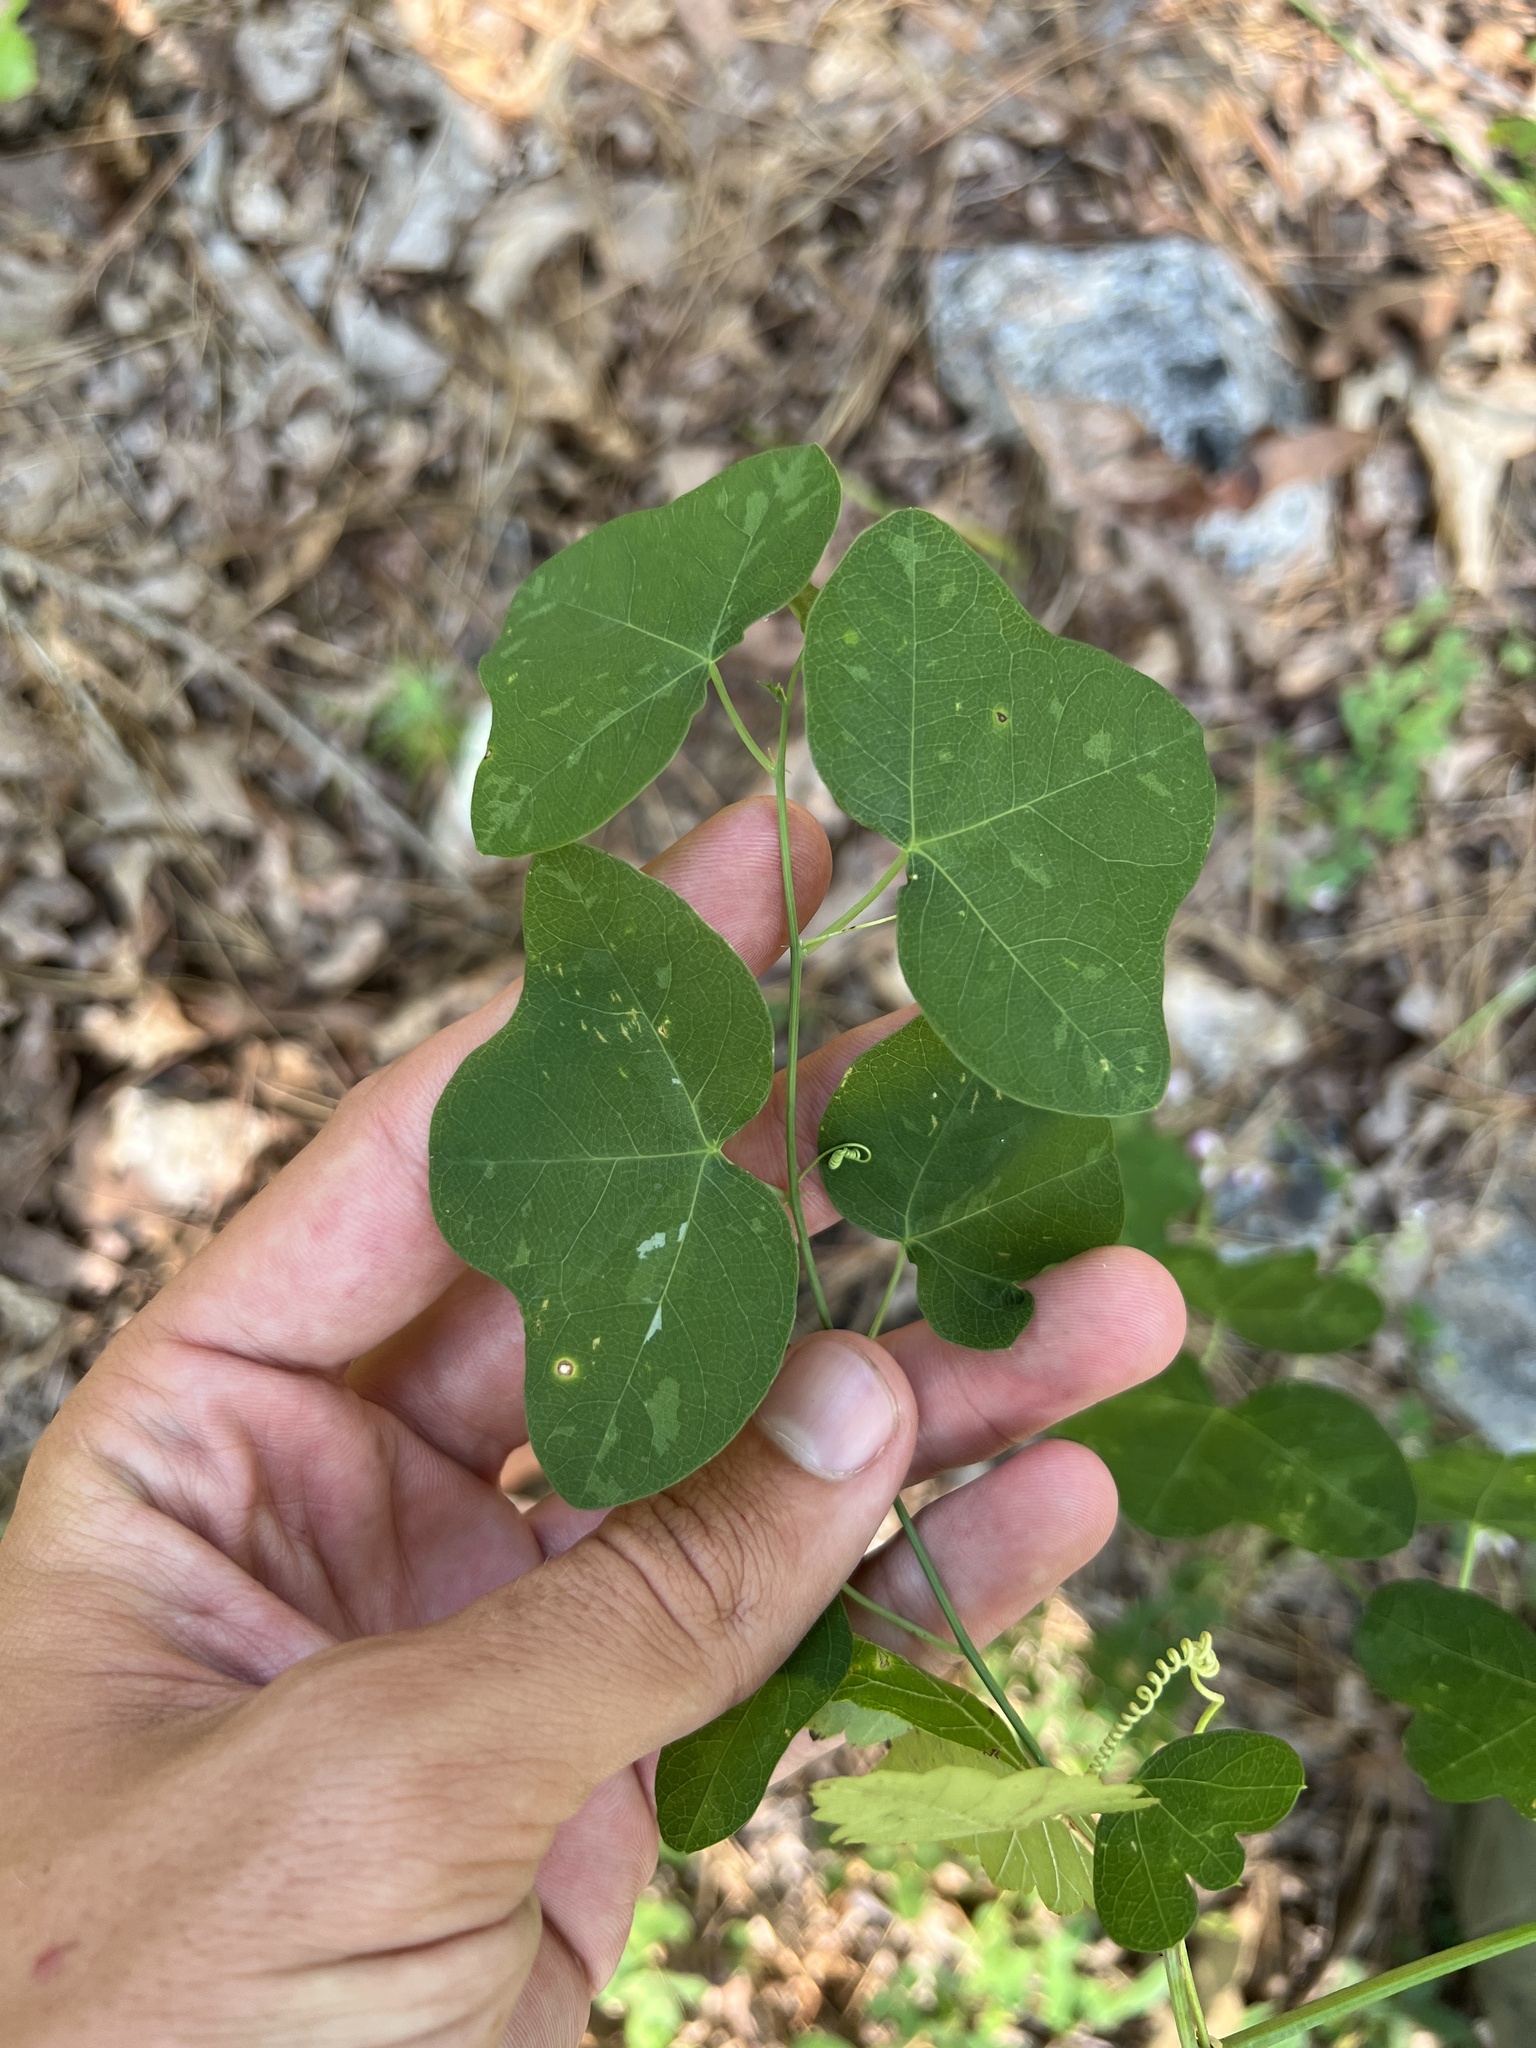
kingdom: Plantae
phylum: Tracheophyta
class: Magnoliopsida
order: Malpighiales
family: Passifloraceae
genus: Passiflora
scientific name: Passiflora lutea
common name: Yellow passionflower
